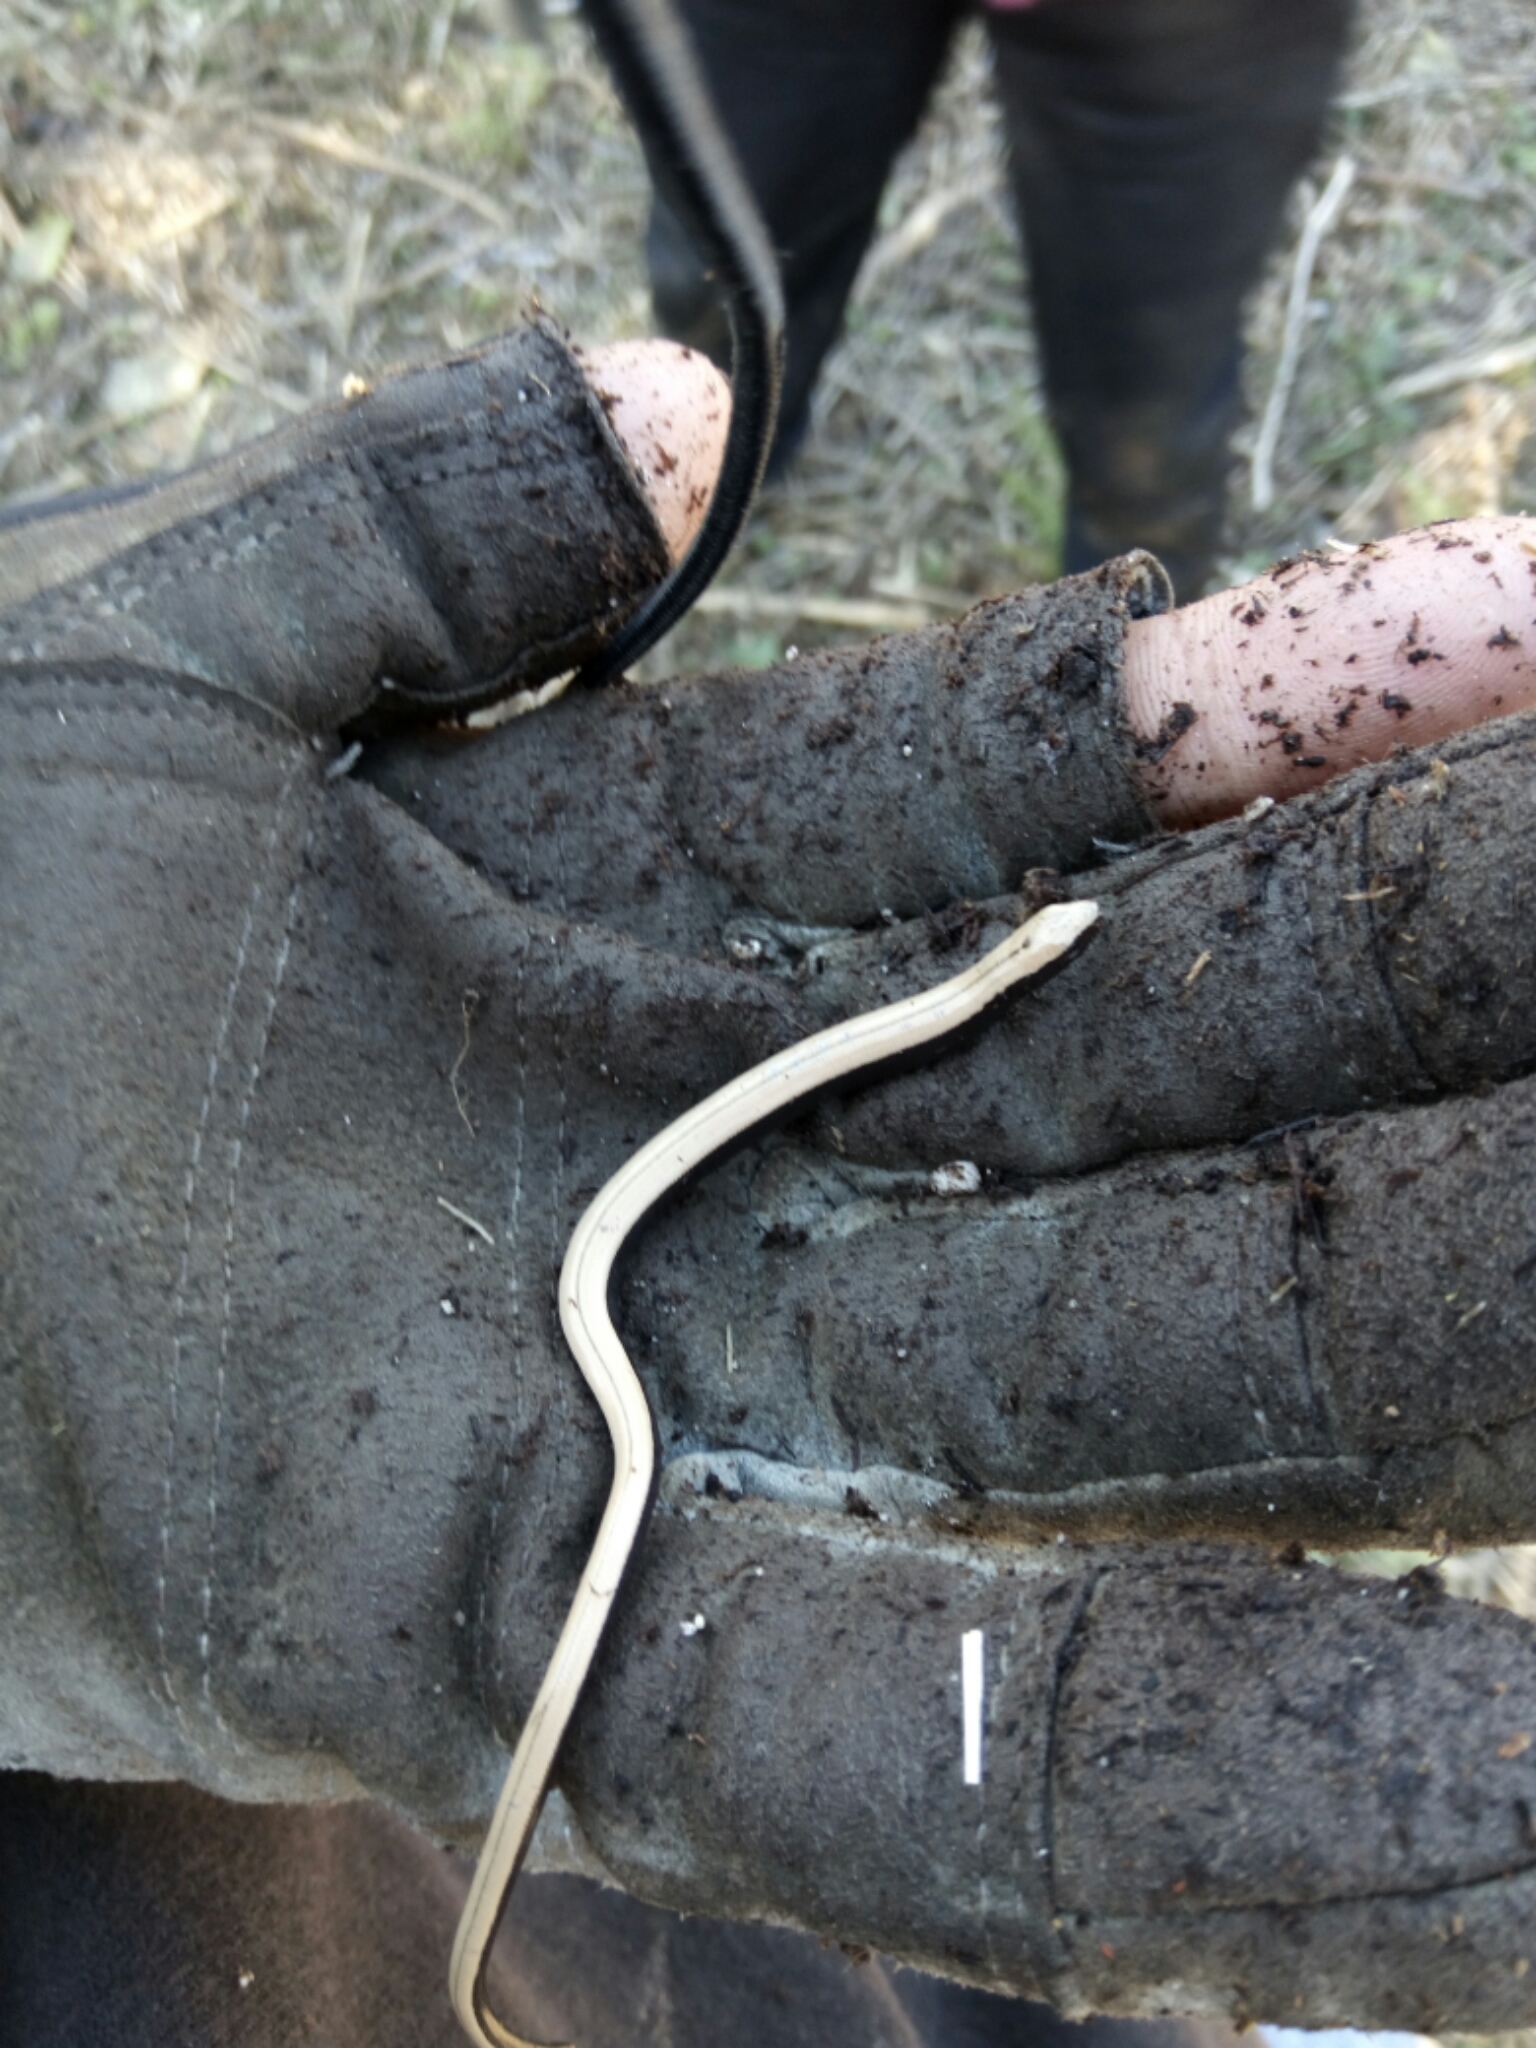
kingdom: Animalia
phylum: Chordata
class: Squamata
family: Anguidae
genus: Anguis
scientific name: Anguis fragilis
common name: Slow worm
